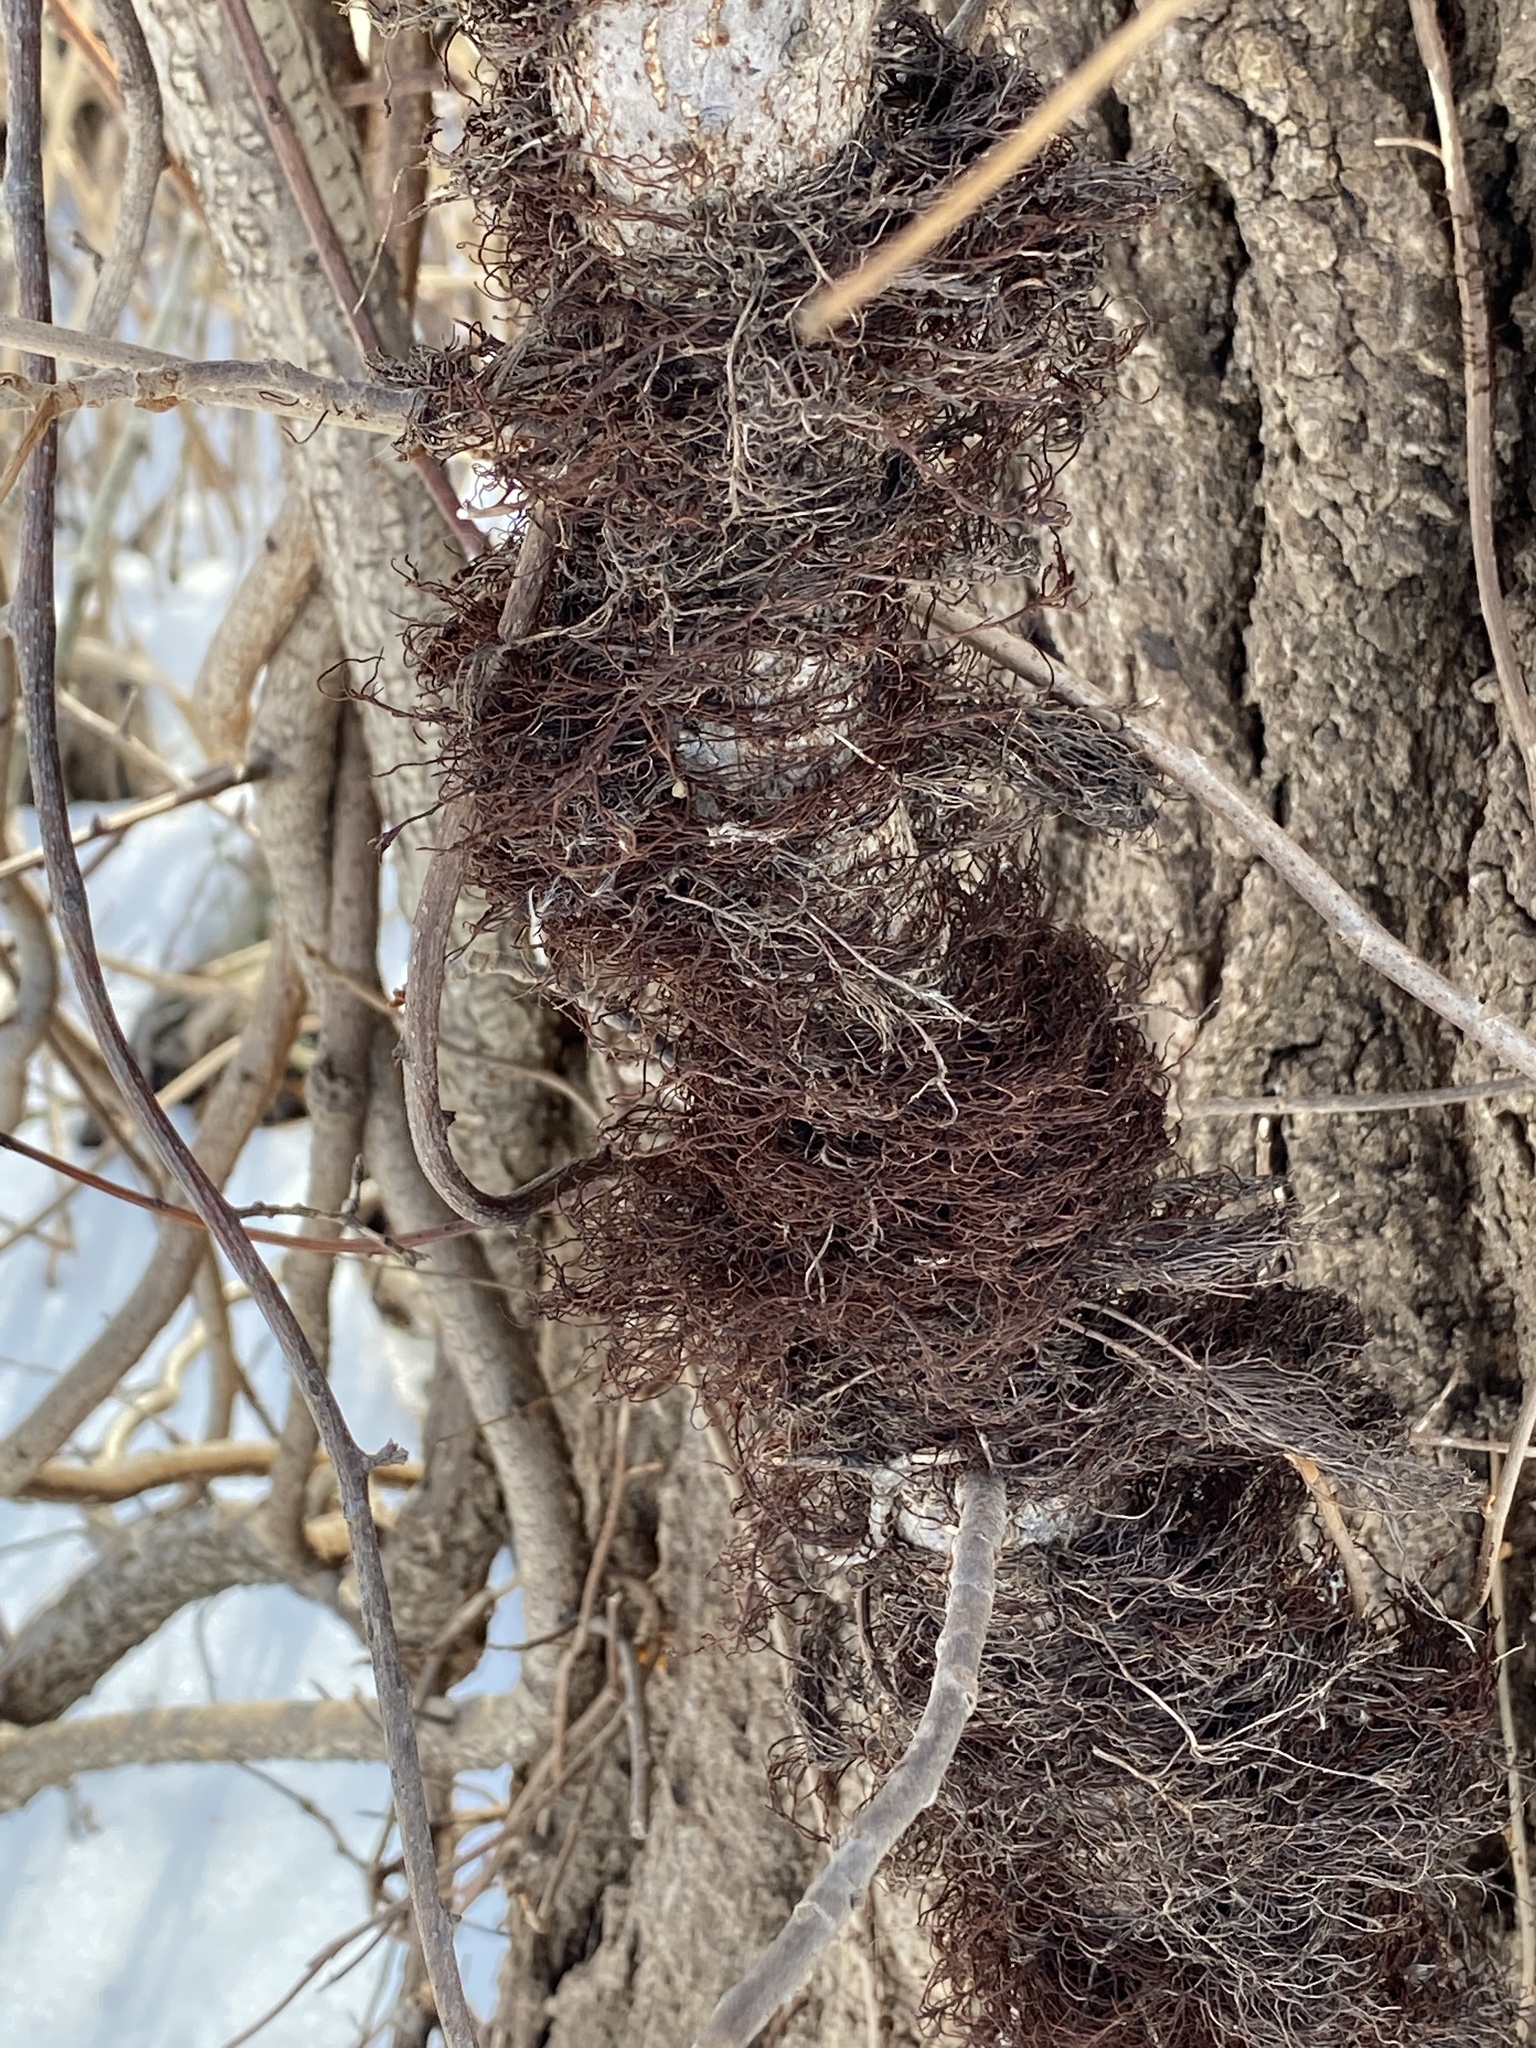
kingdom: Plantae
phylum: Tracheophyta
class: Magnoliopsida
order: Sapindales
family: Anacardiaceae
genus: Toxicodendron
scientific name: Toxicodendron radicans
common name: Poison ivy
